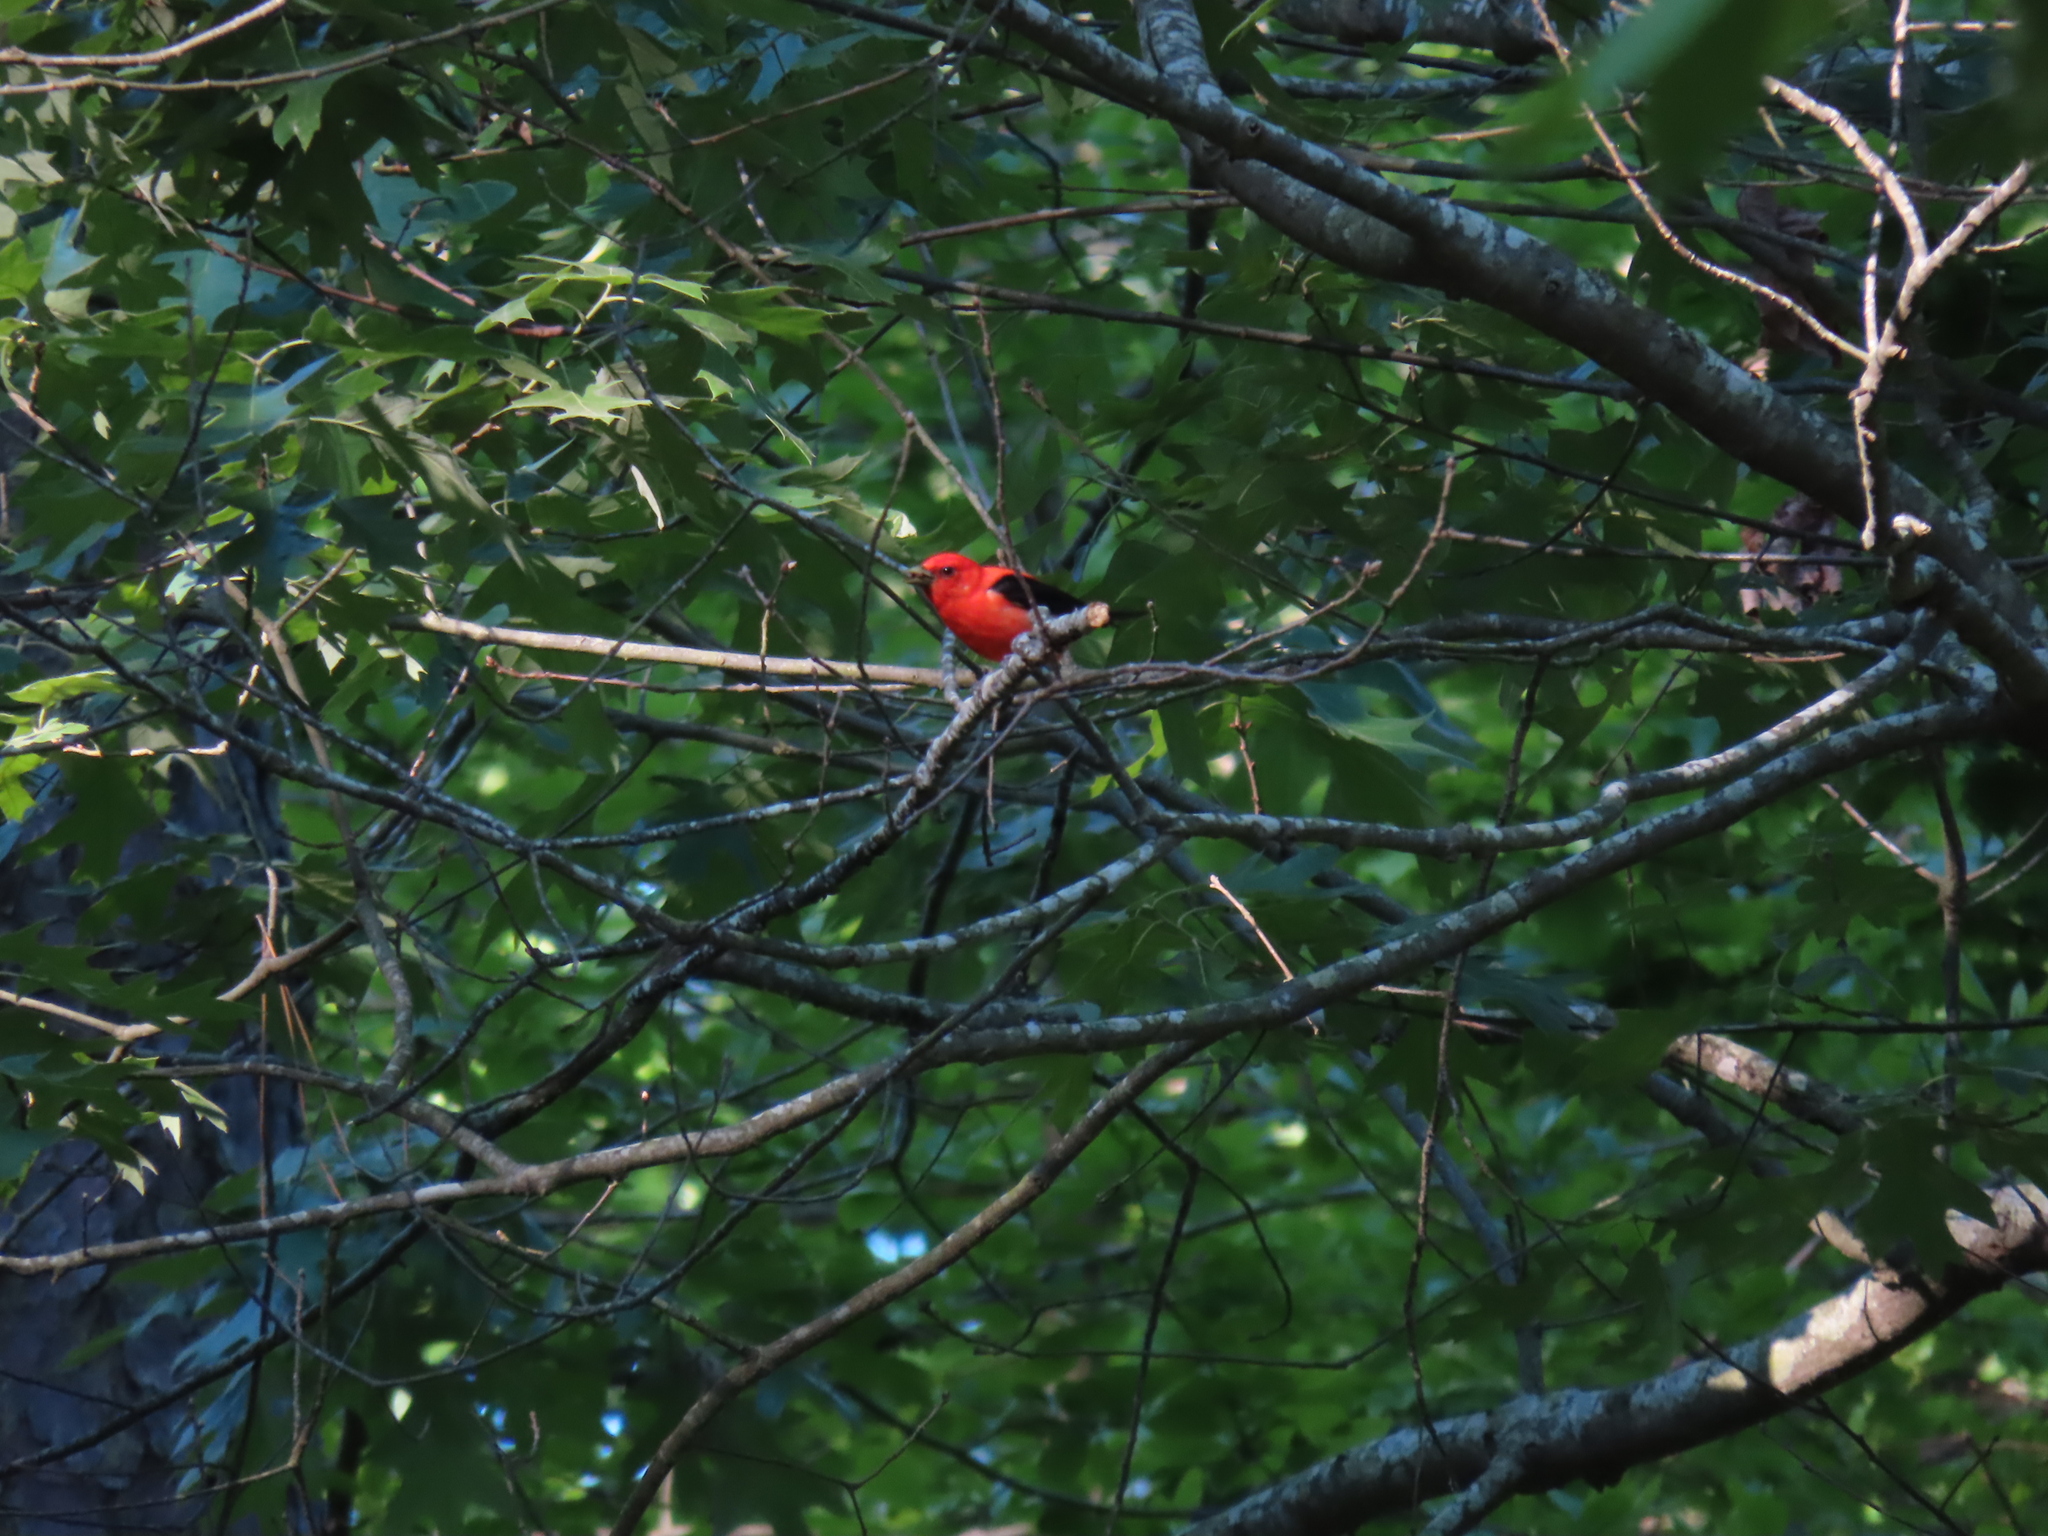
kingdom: Animalia
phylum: Chordata
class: Aves
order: Passeriformes
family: Cardinalidae
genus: Piranga
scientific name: Piranga olivacea
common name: Scarlet tanager
